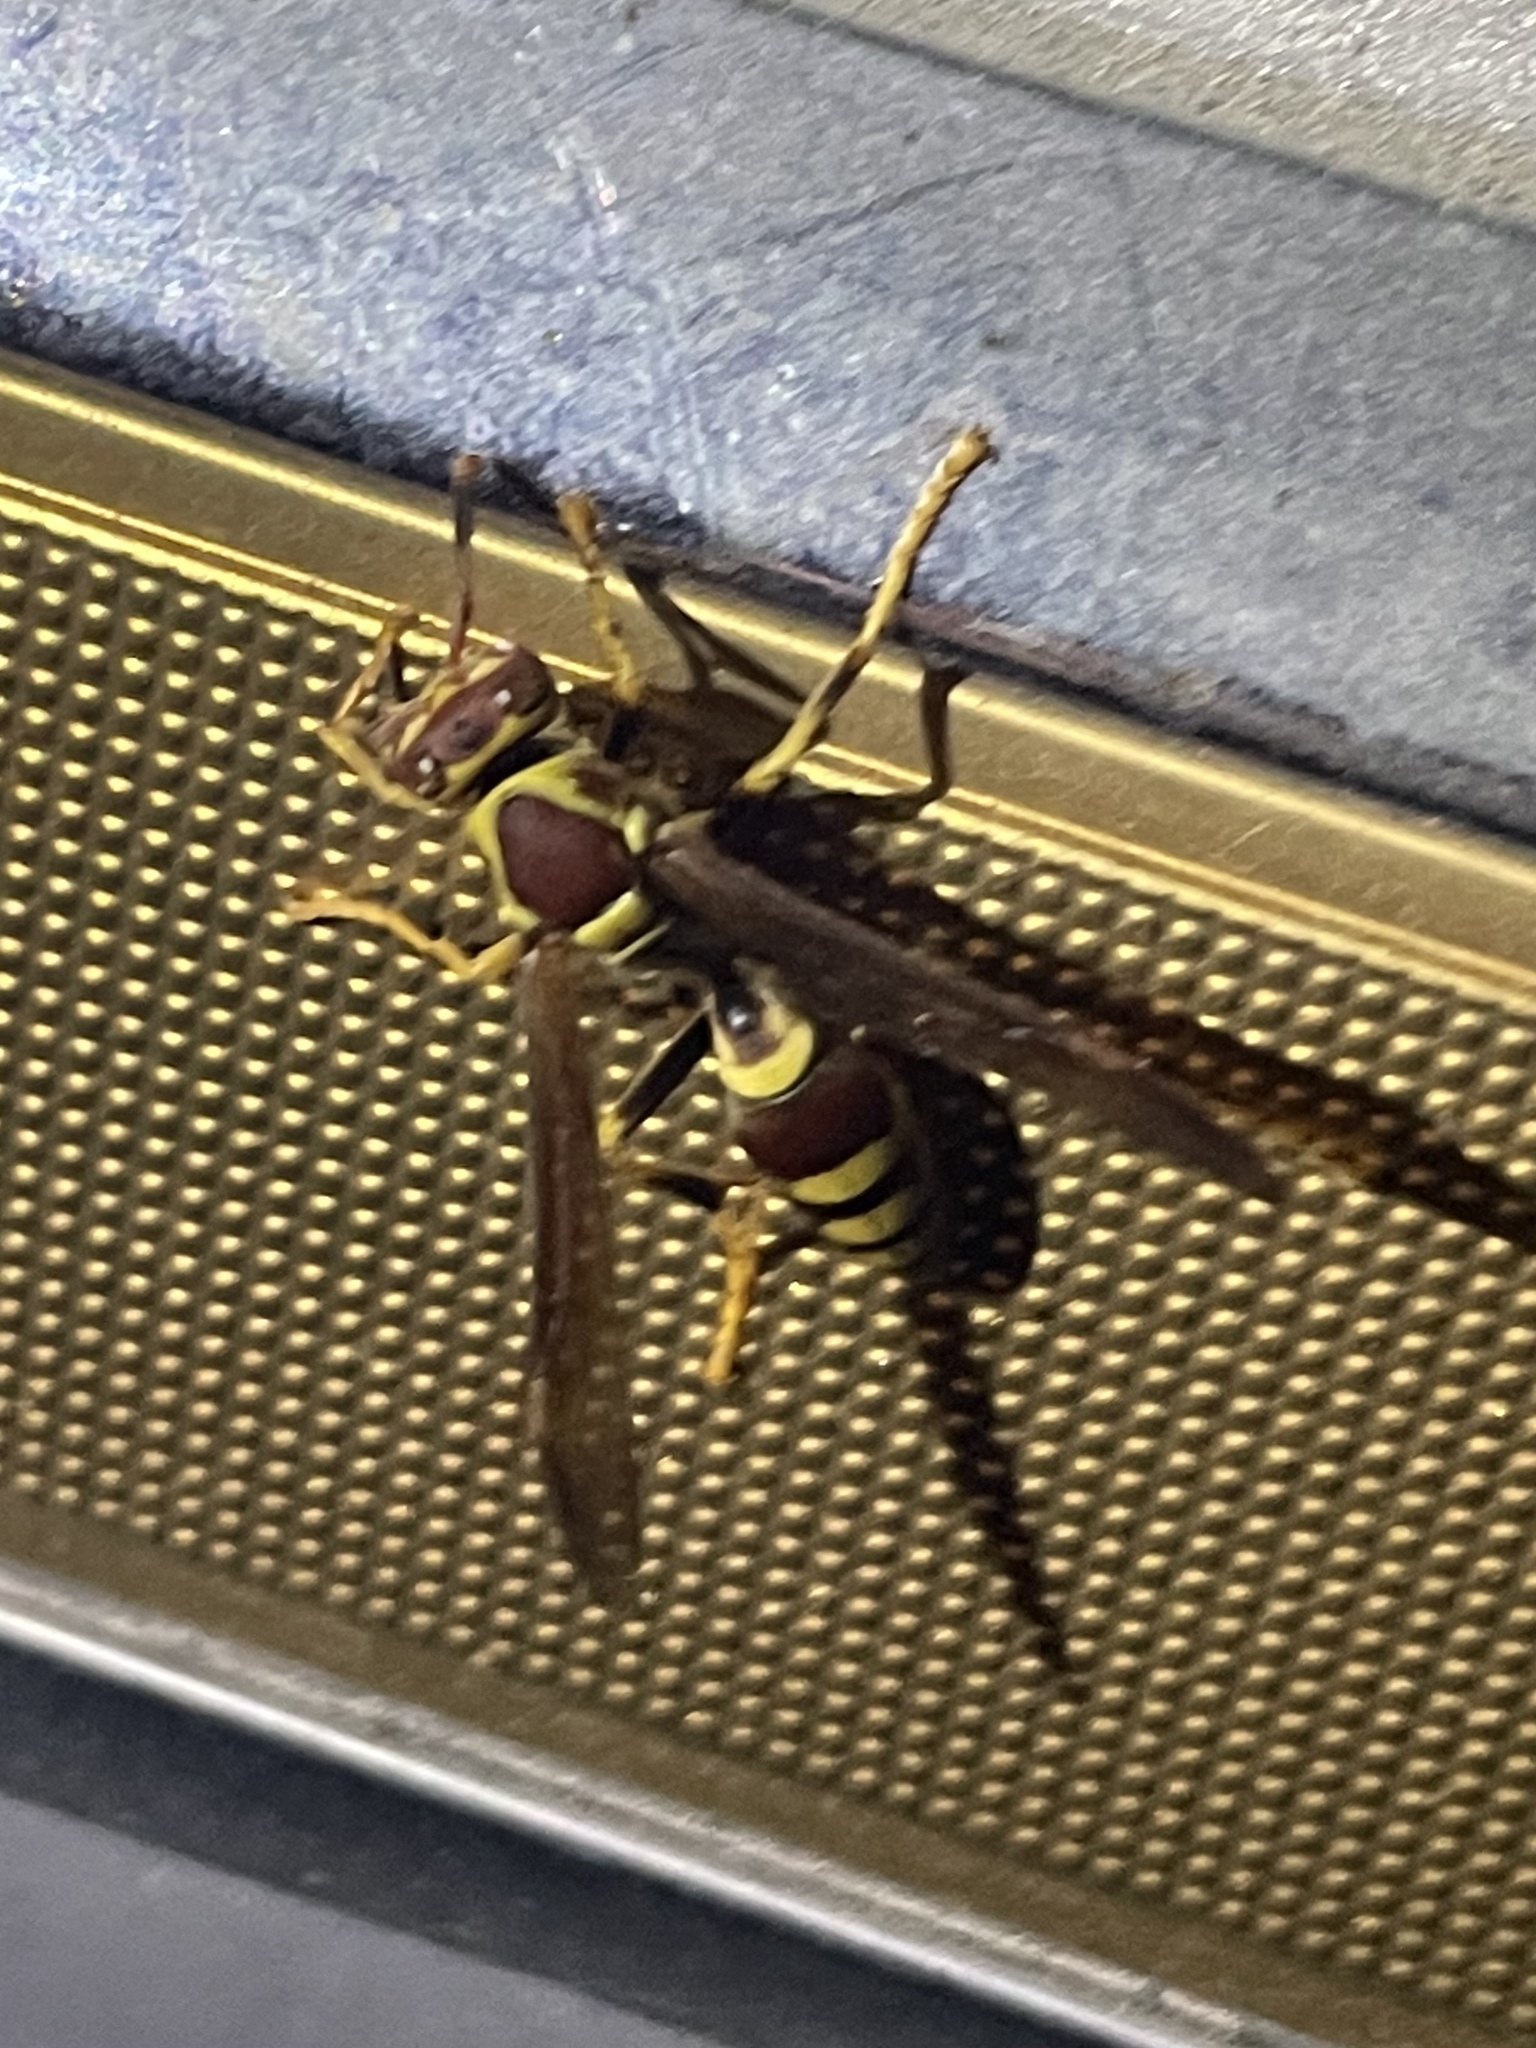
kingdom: Animalia
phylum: Arthropoda
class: Insecta
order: Hymenoptera
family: Eumenidae
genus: Polistes
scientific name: Polistes exclamans
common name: Paper wasp
